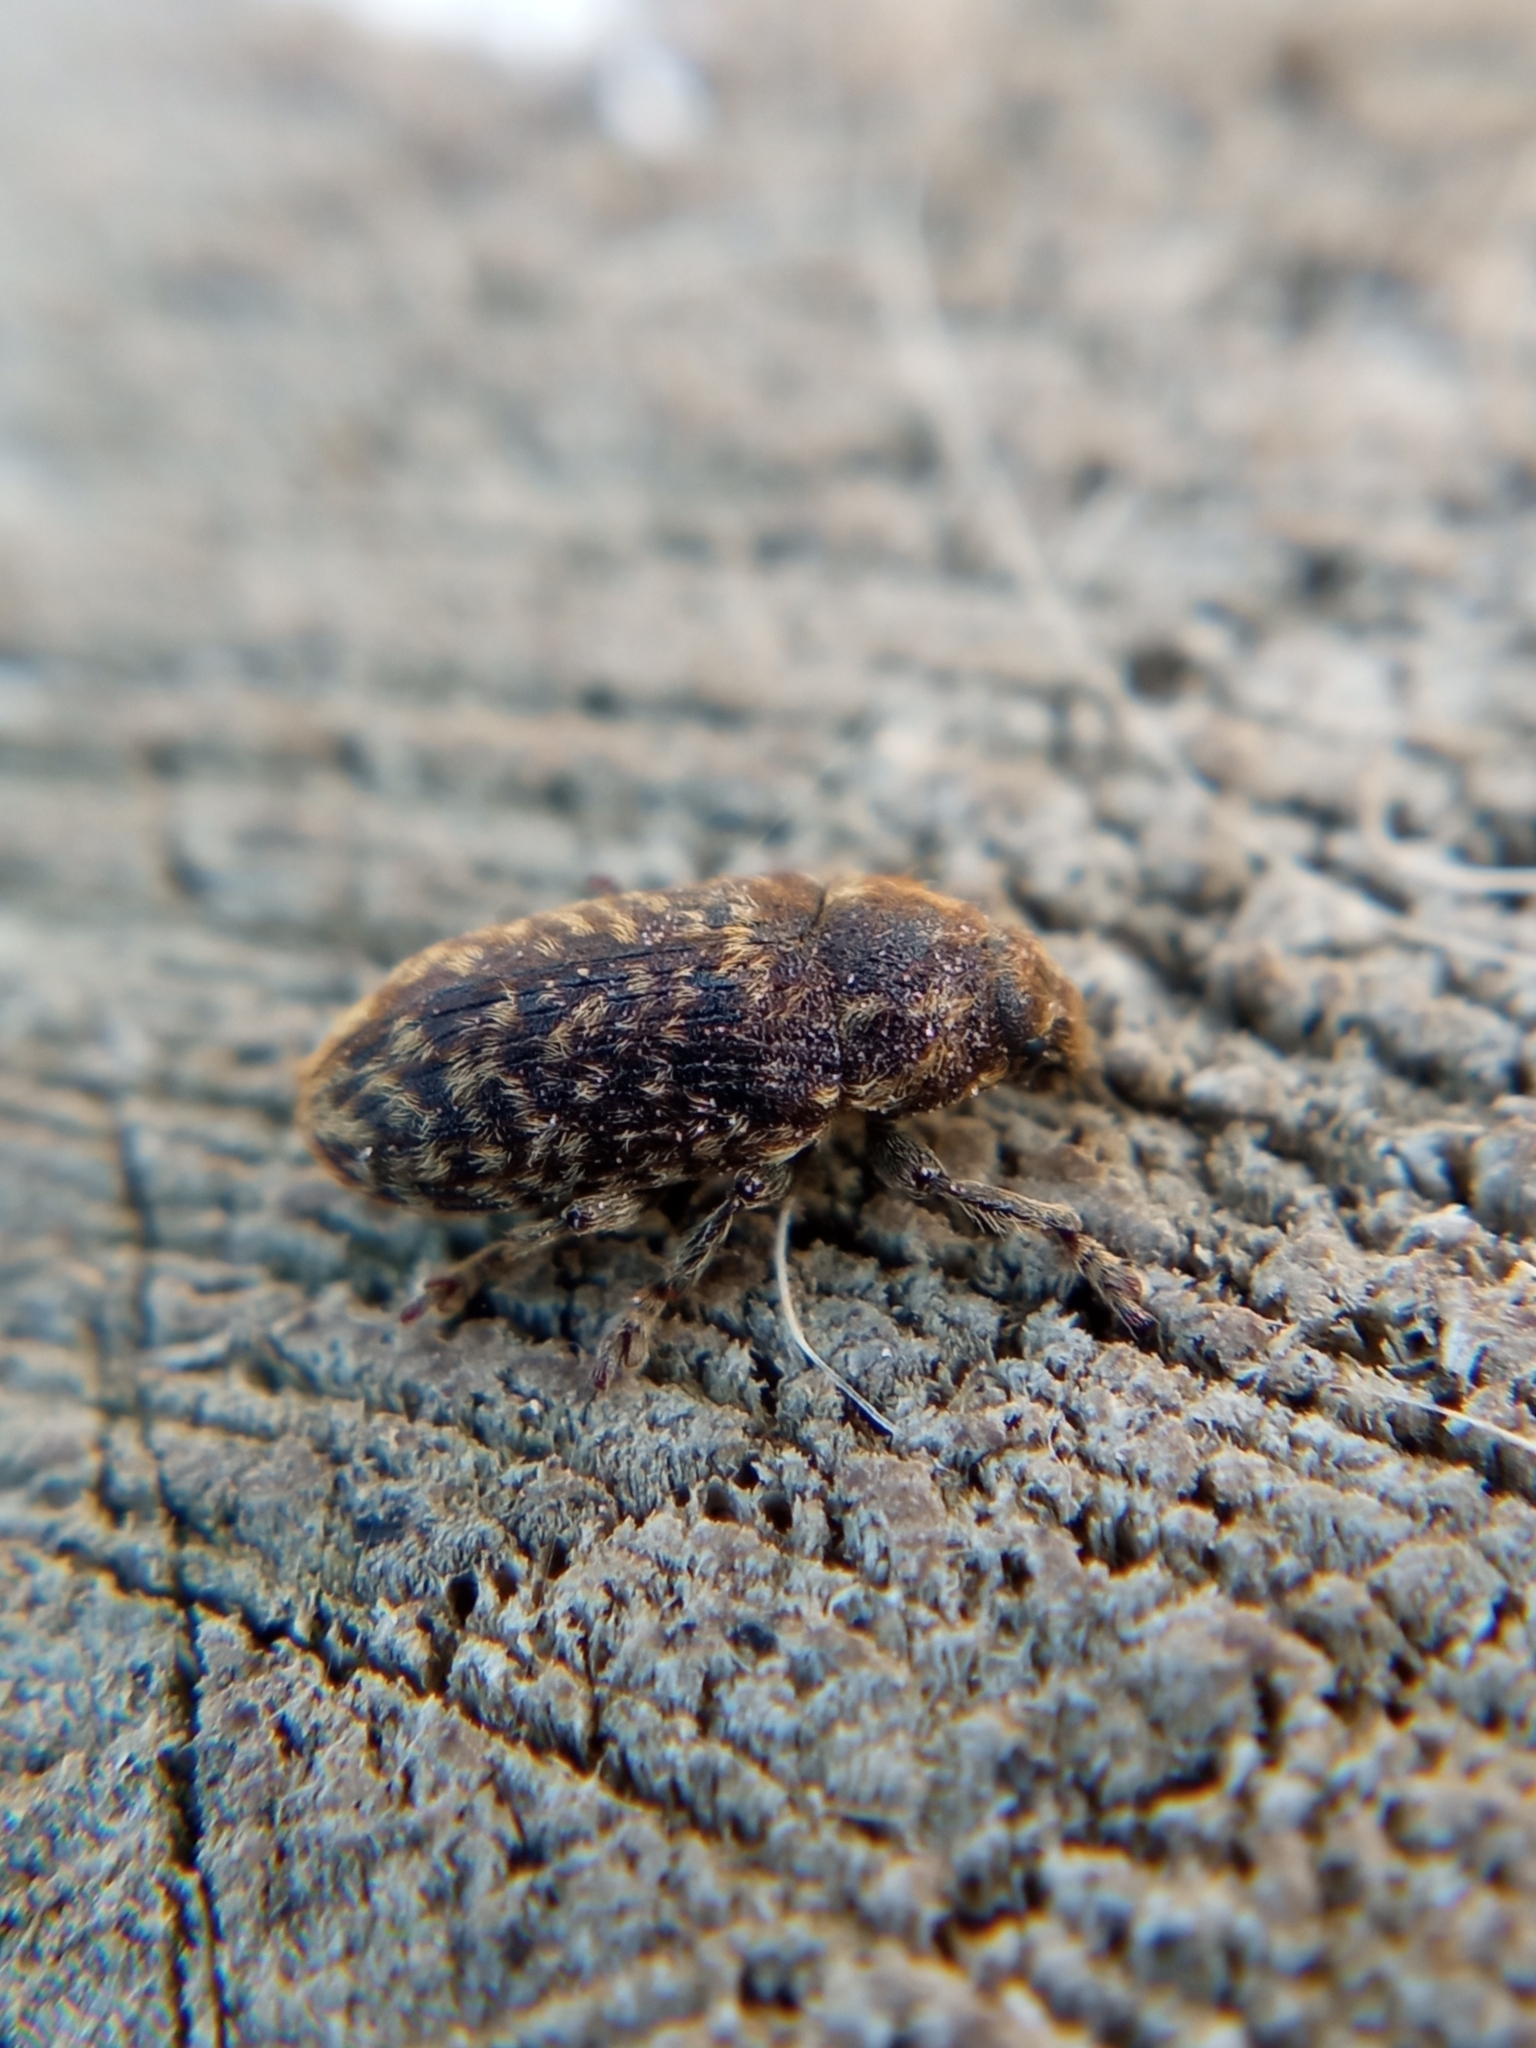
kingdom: Animalia
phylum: Arthropoda
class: Insecta
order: Coleoptera
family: Curculionidae
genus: Rhinocyllus
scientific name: Rhinocyllus conicus
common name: Weevil
